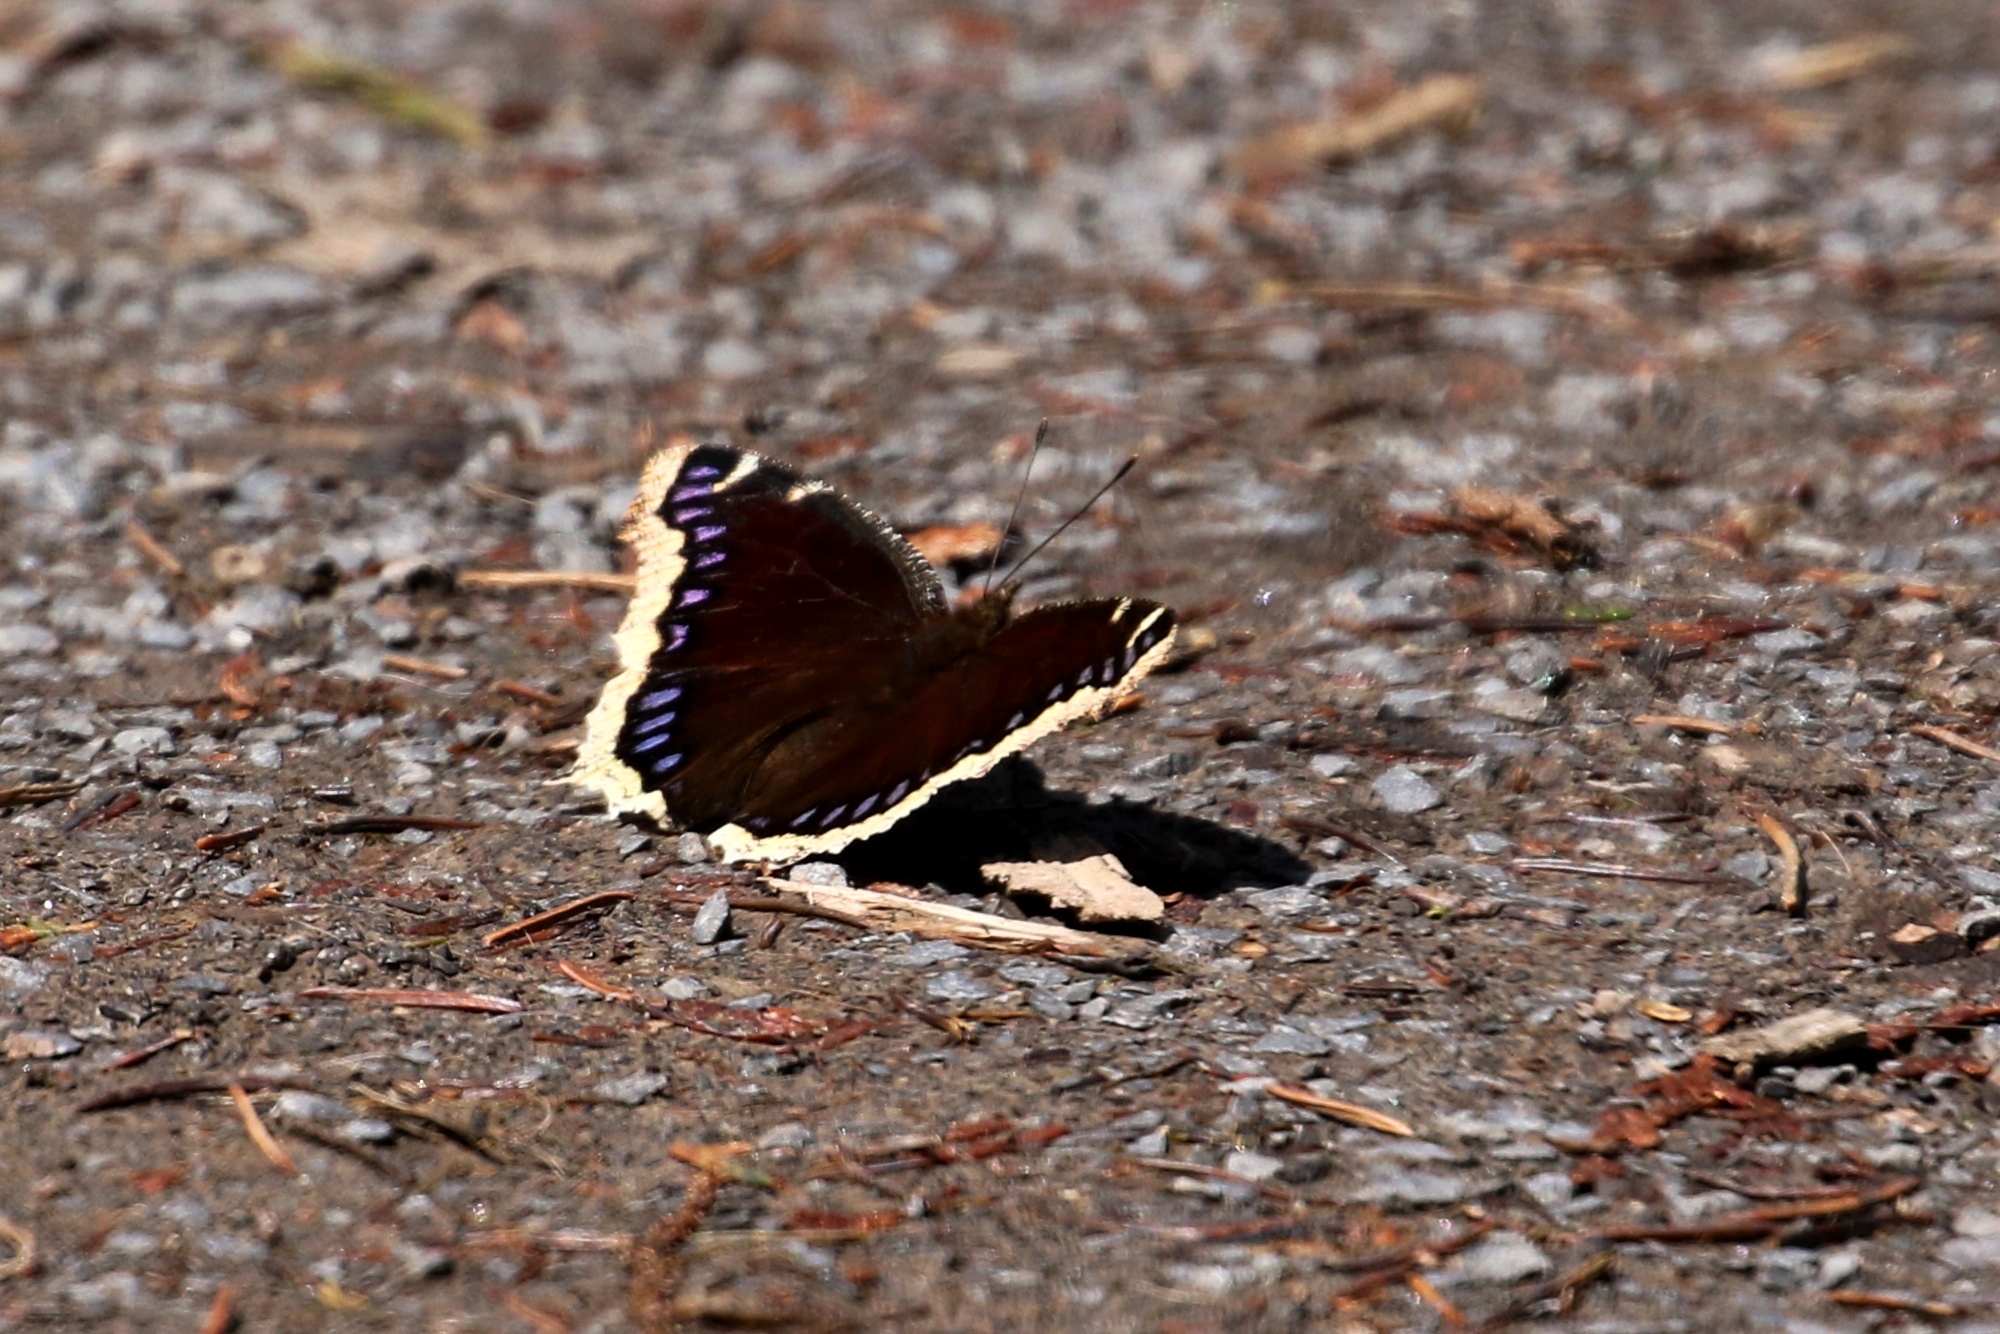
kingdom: Animalia
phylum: Arthropoda
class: Insecta
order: Lepidoptera
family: Nymphalidae
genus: Nymphalis
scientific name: Nymphalis antiopa
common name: Camberwell beauty
